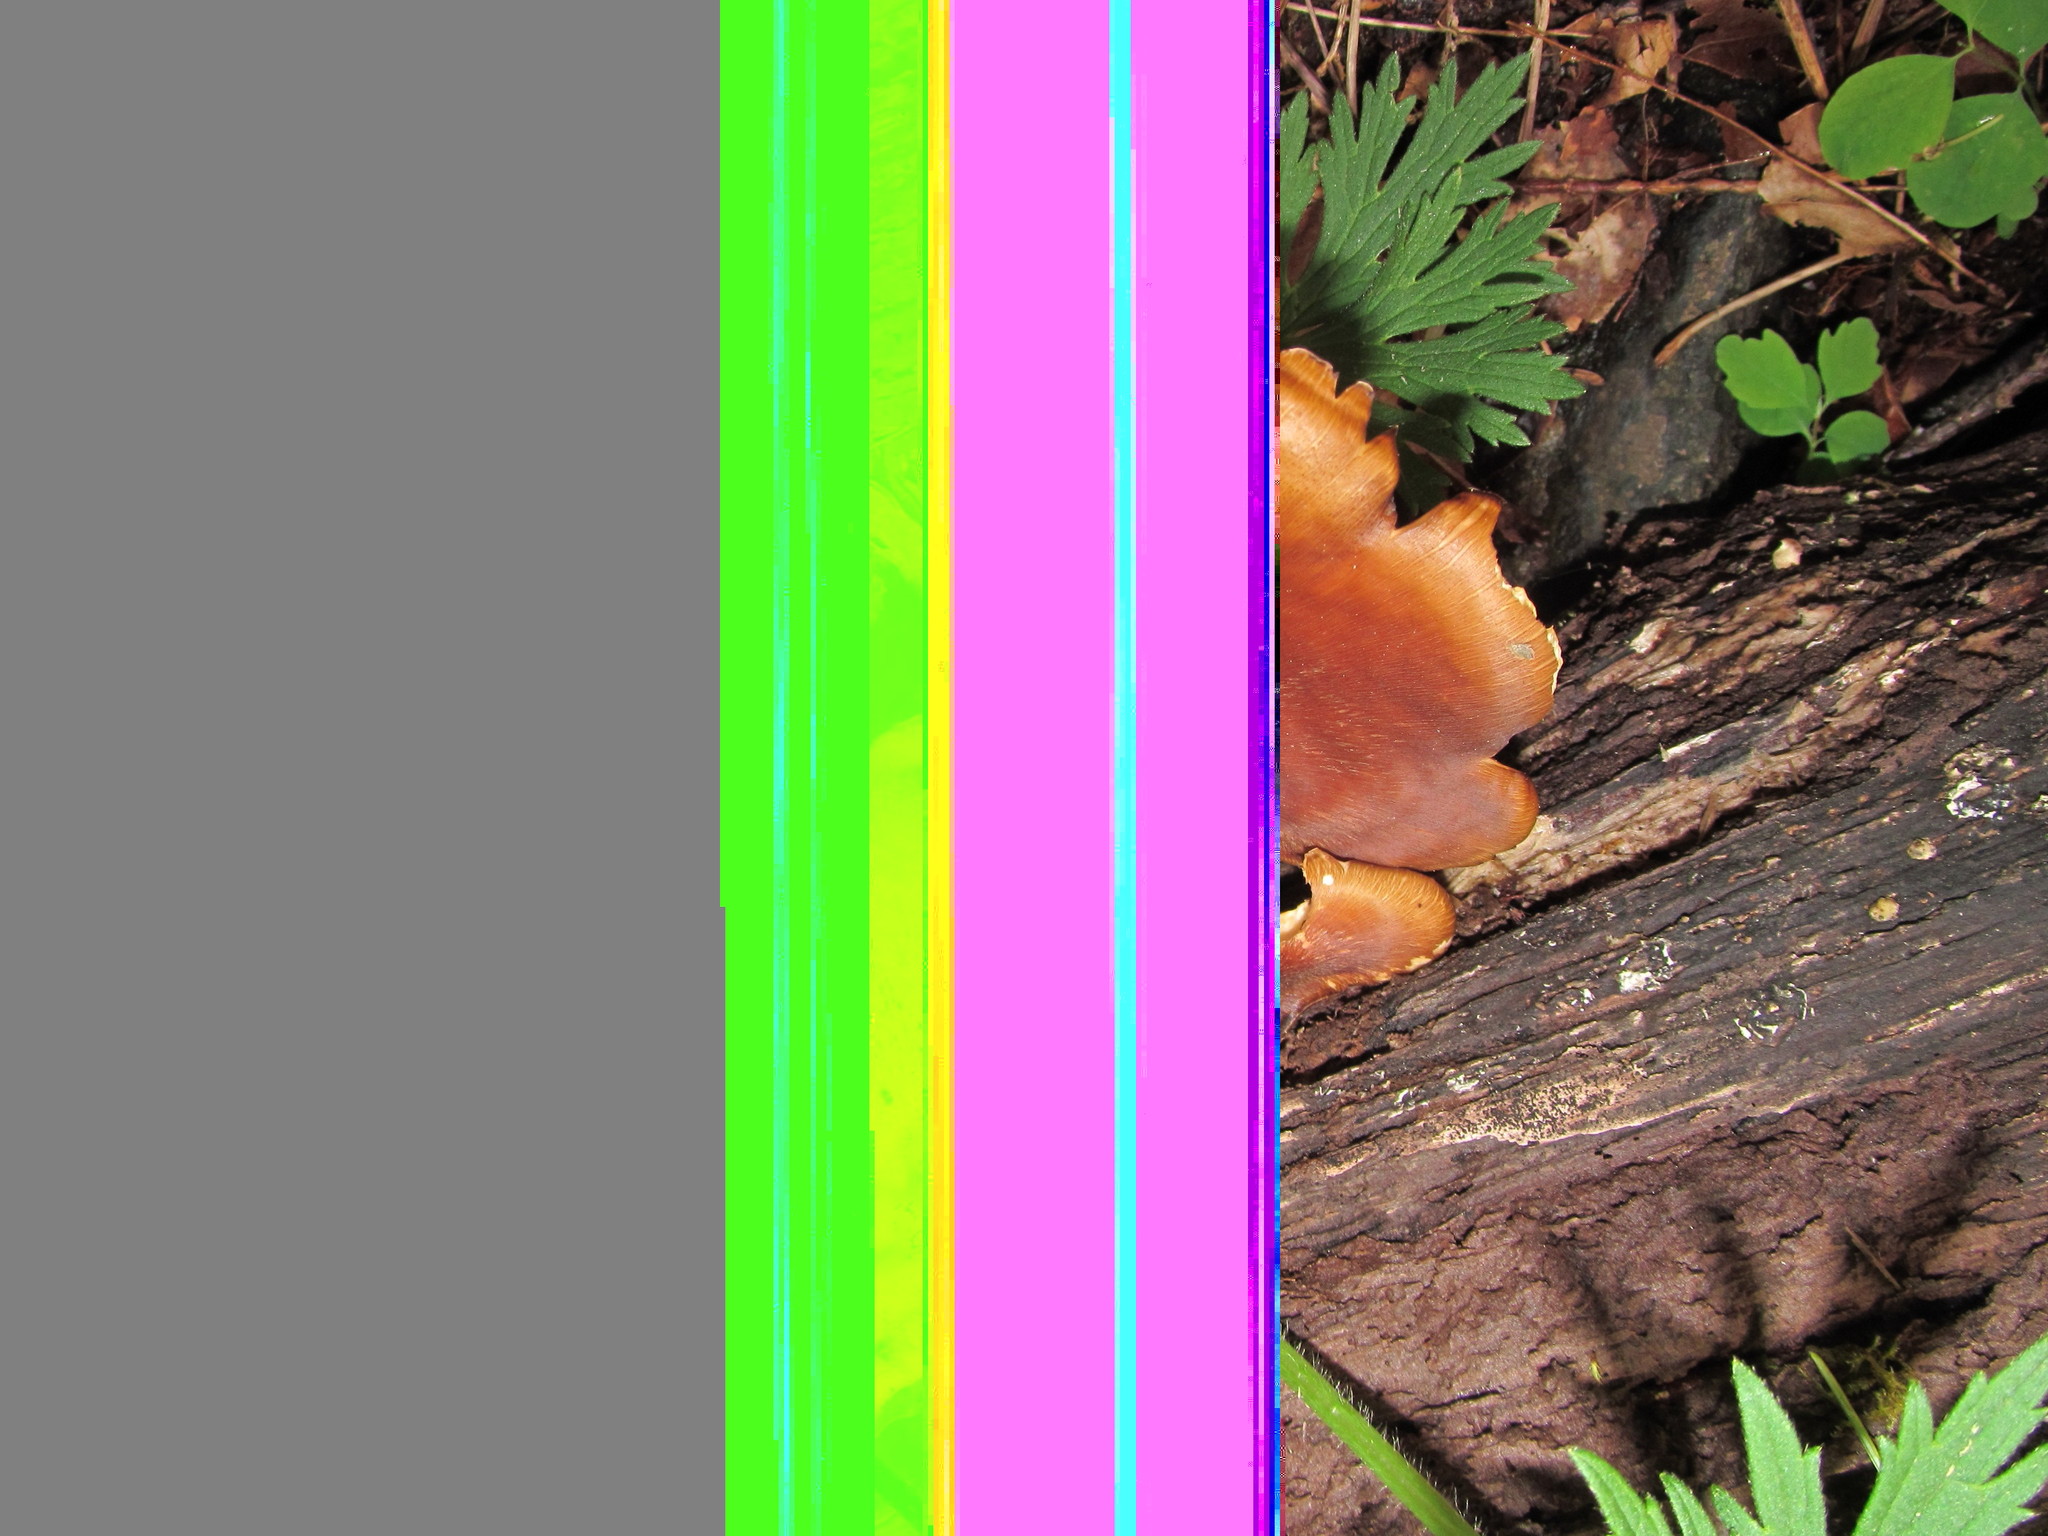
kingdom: Fungi
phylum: Basidiomycota
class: Agaricomycetes
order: Polyporales
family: Polyporaceae
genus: Picipes
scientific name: Picipes badius
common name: Bay polypore
